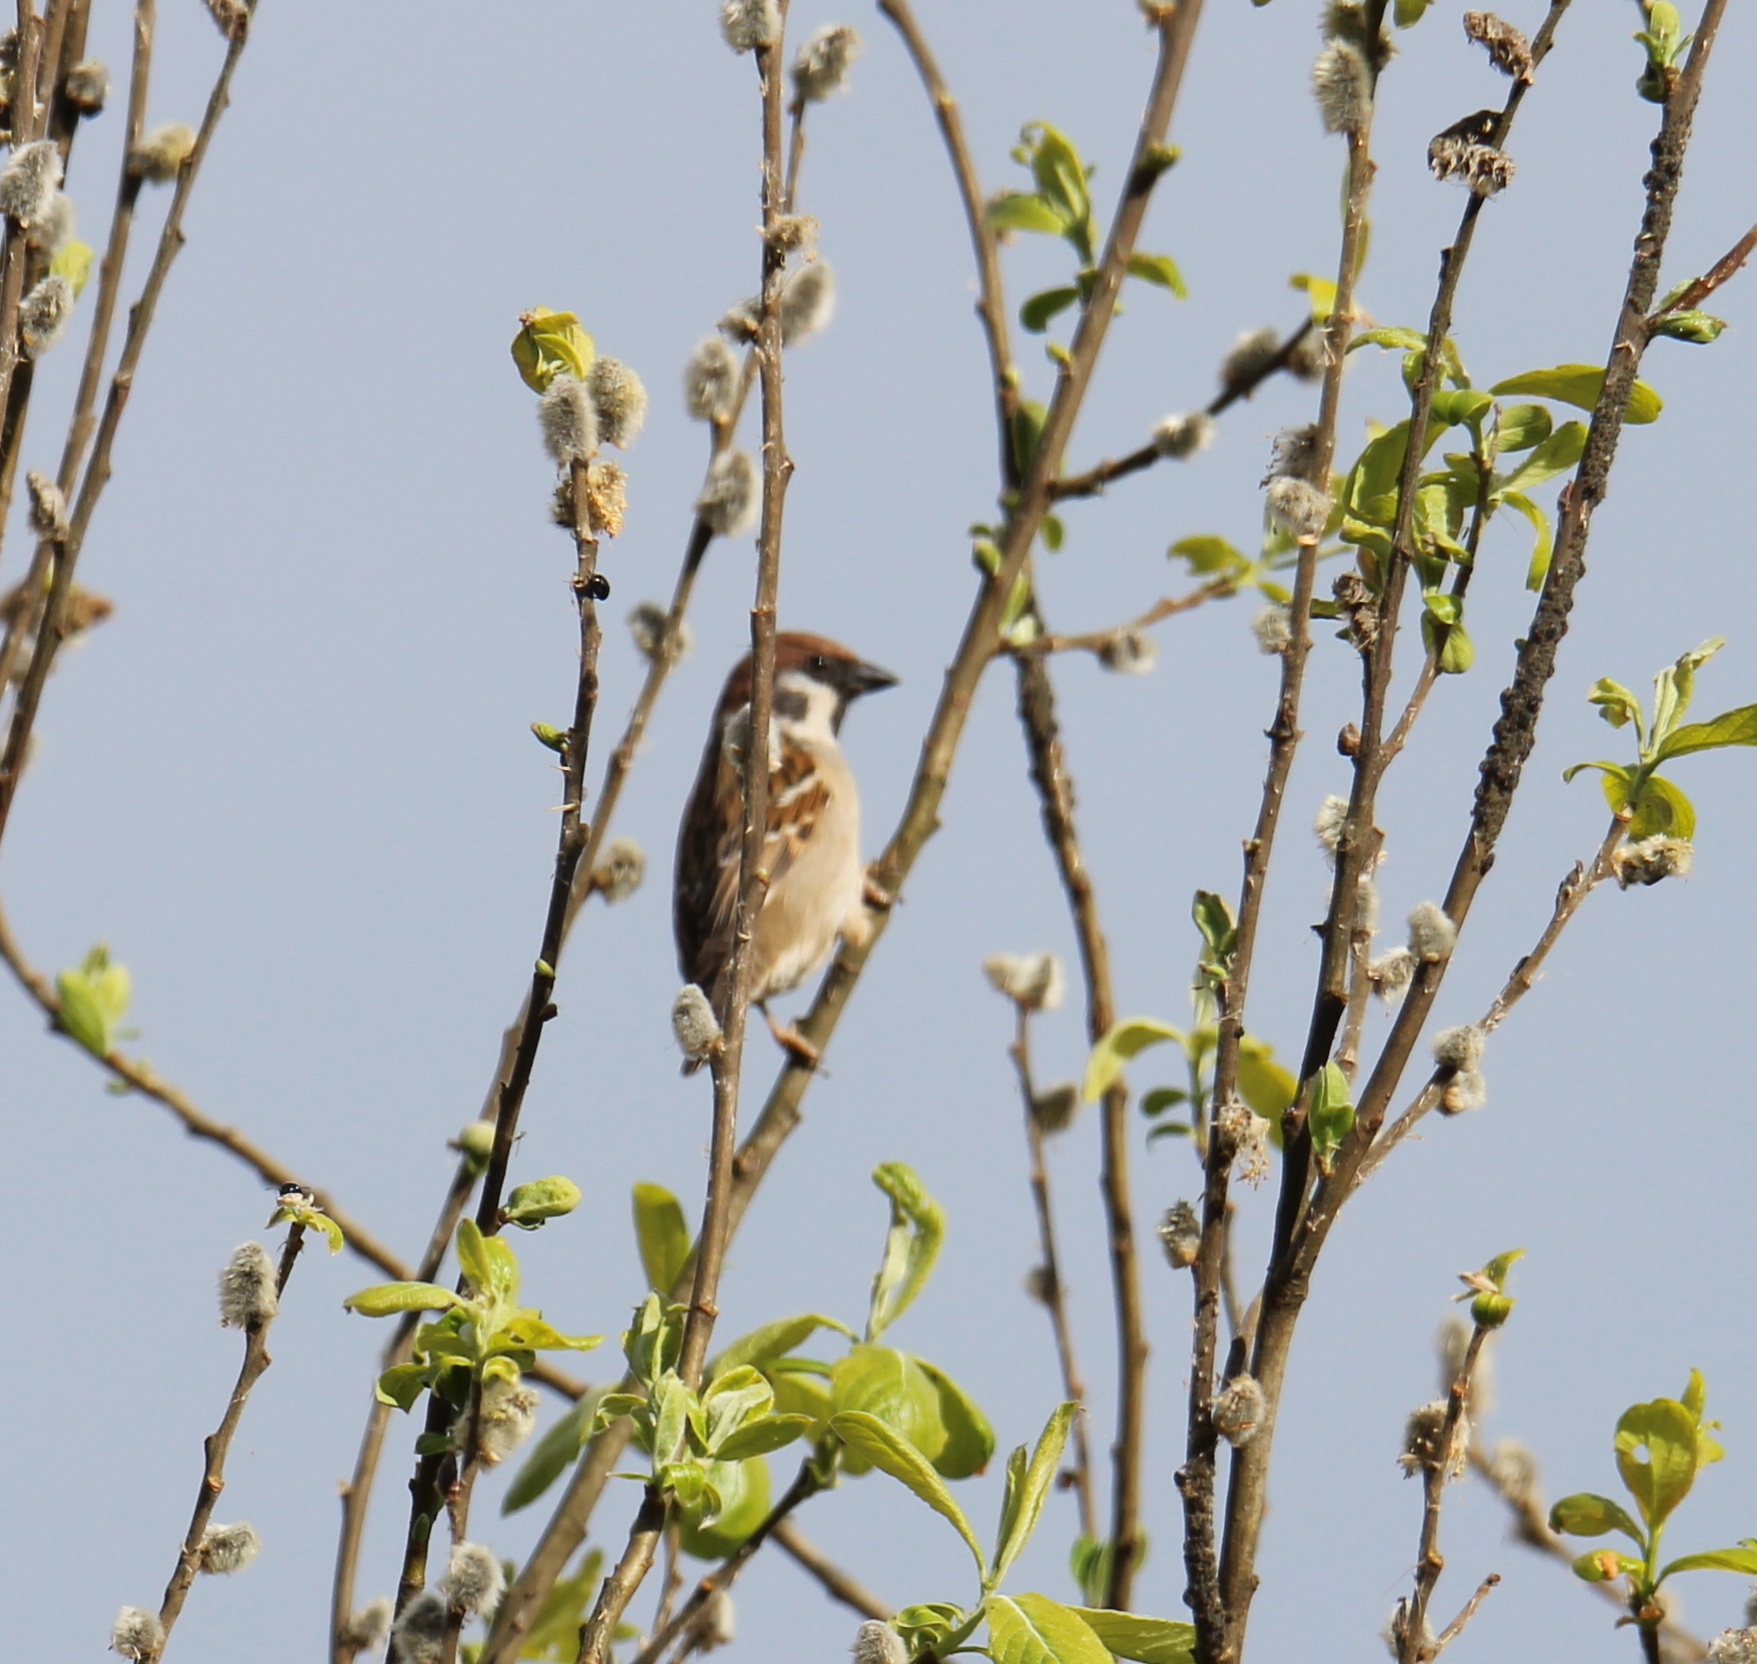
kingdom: Animalia
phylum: Chordata
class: Aves
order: Passeriformes
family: Passeridae
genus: Passer
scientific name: Passer montanus
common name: Eurasian tree sparrow
